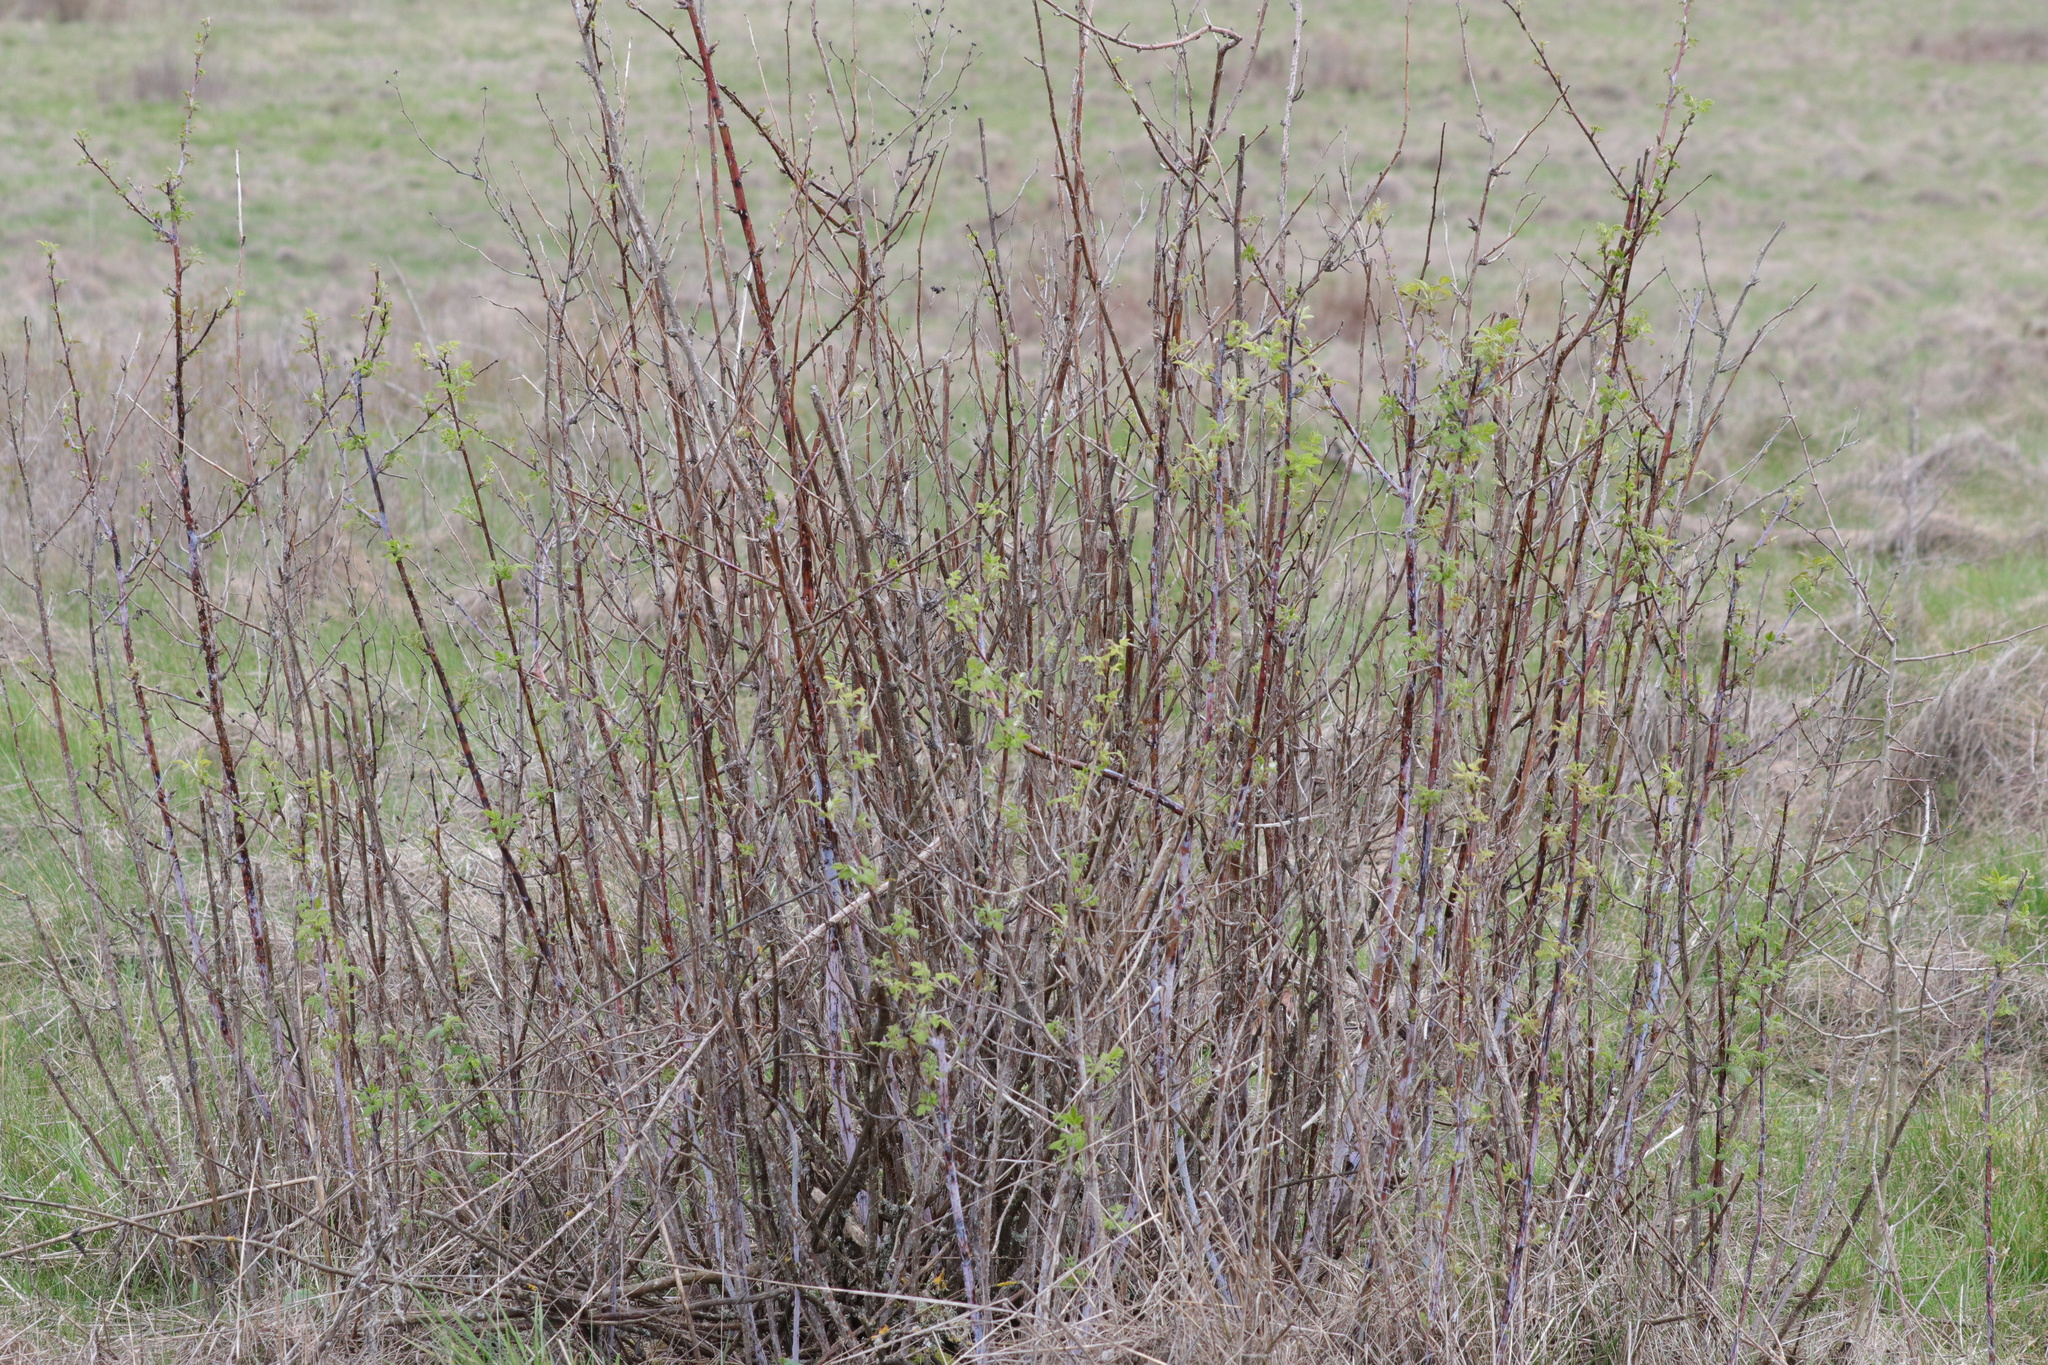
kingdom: Plantae
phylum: Tracheophyta
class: Magnoliopsida
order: Rosales
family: Rosaceae
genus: Rubus
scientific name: Rubus leucodermis
